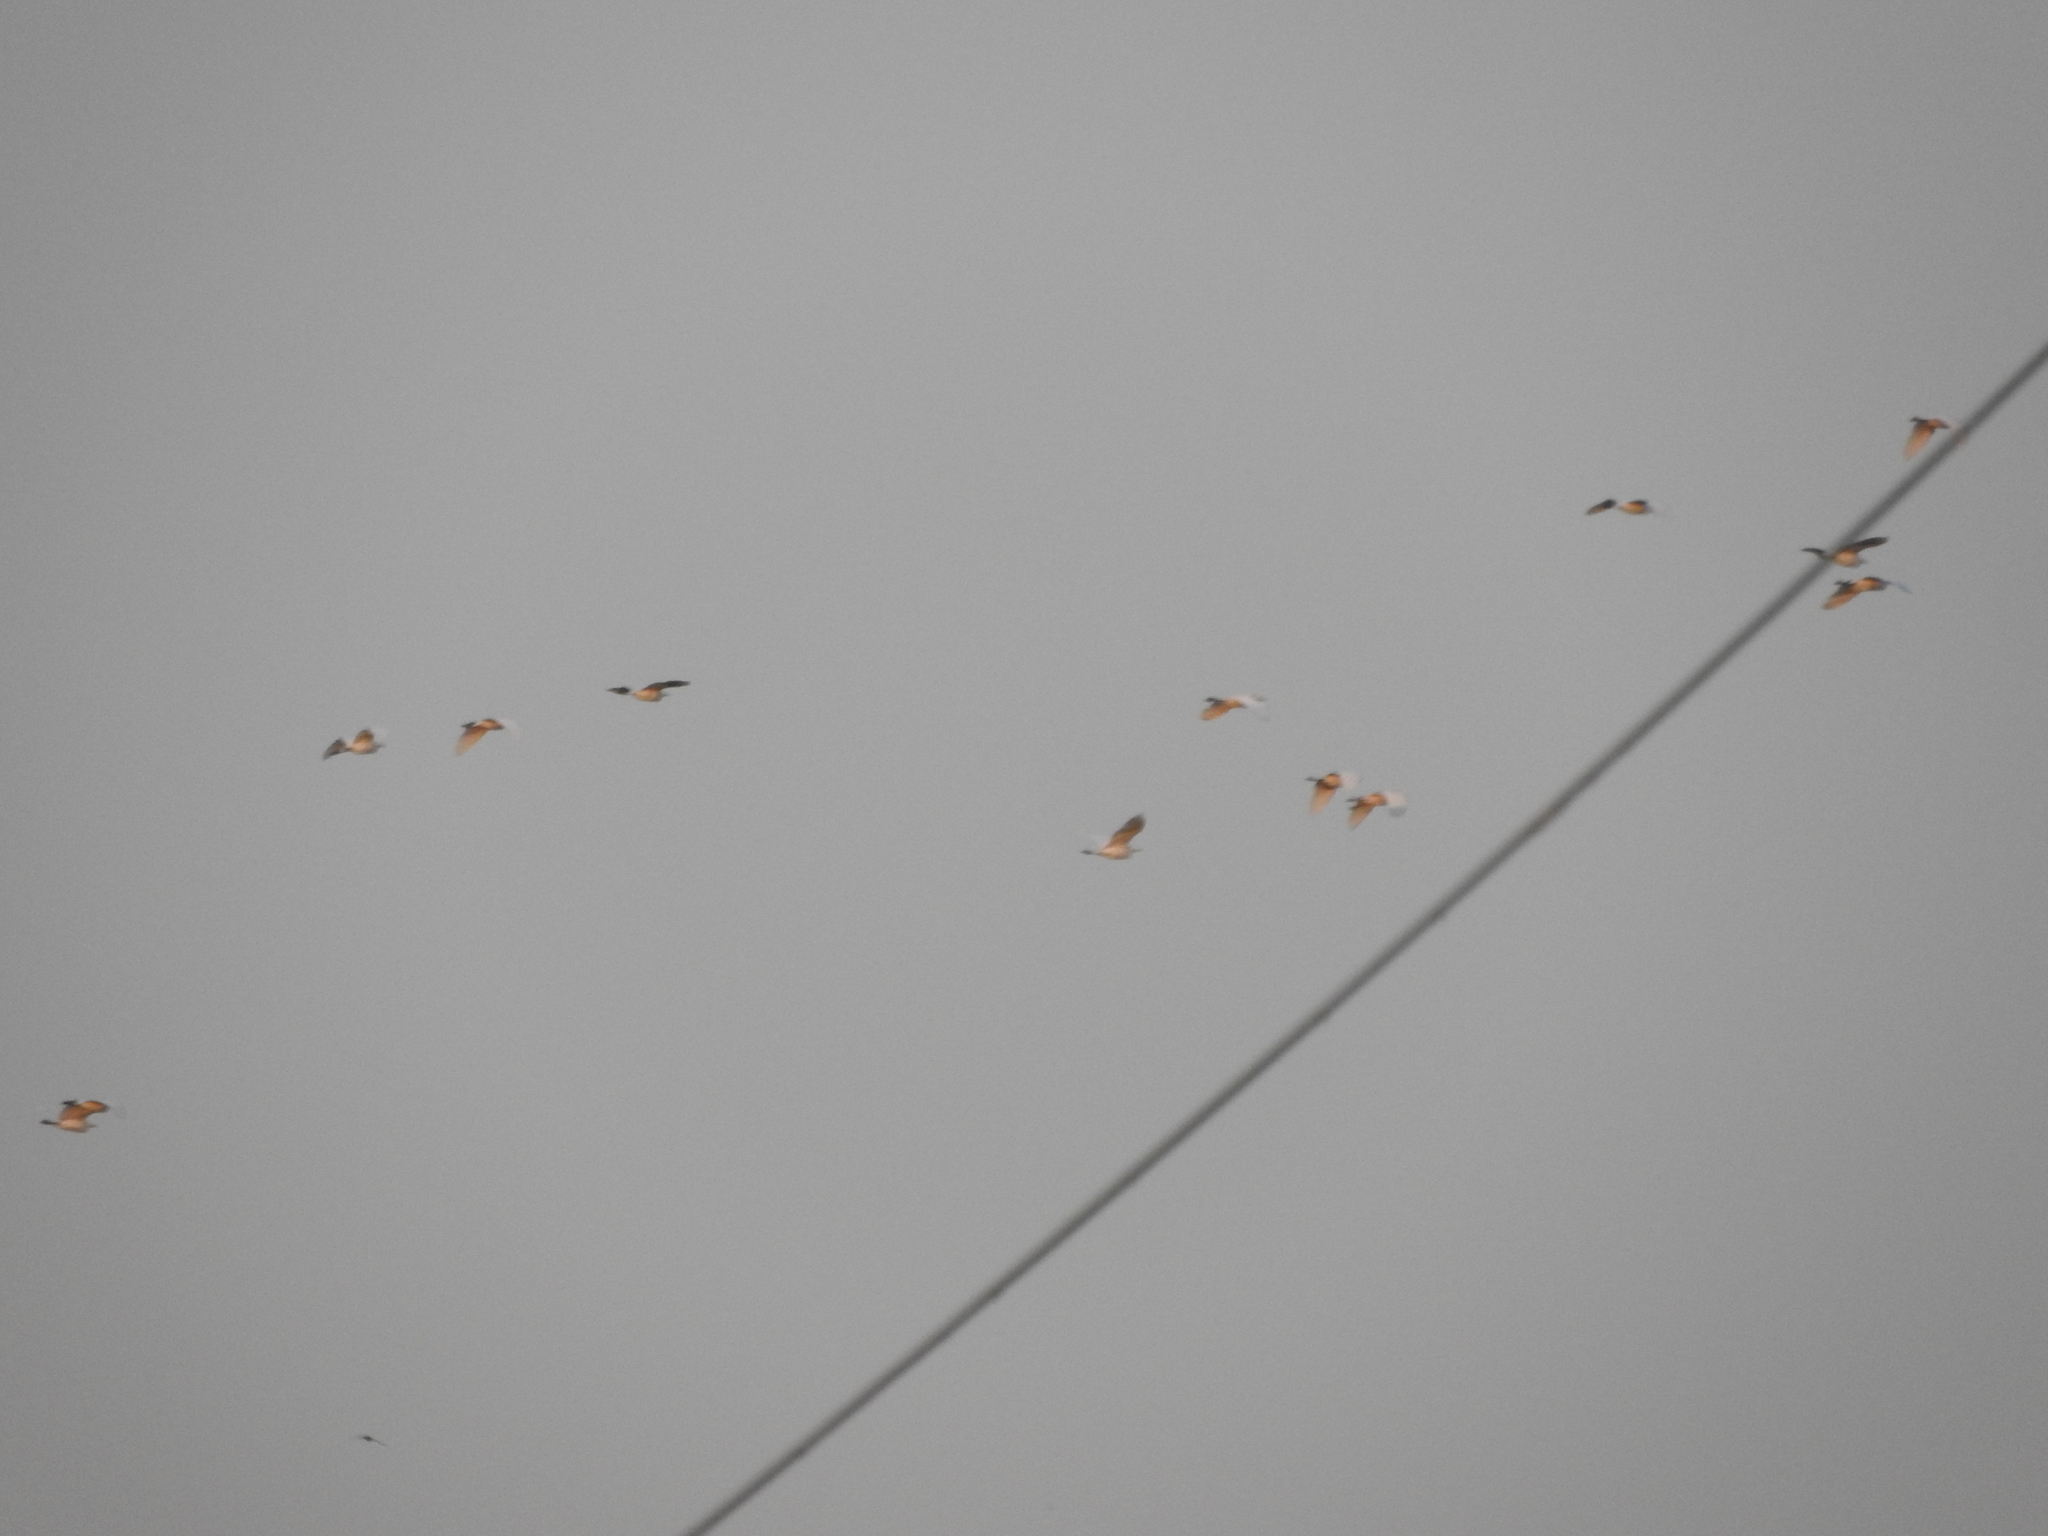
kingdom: Animalia
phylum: Chordata
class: Aves
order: Pelecaniformes
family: Ardeidae
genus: Bubulcus
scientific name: Bubulcus ibis
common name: Cattle egret
